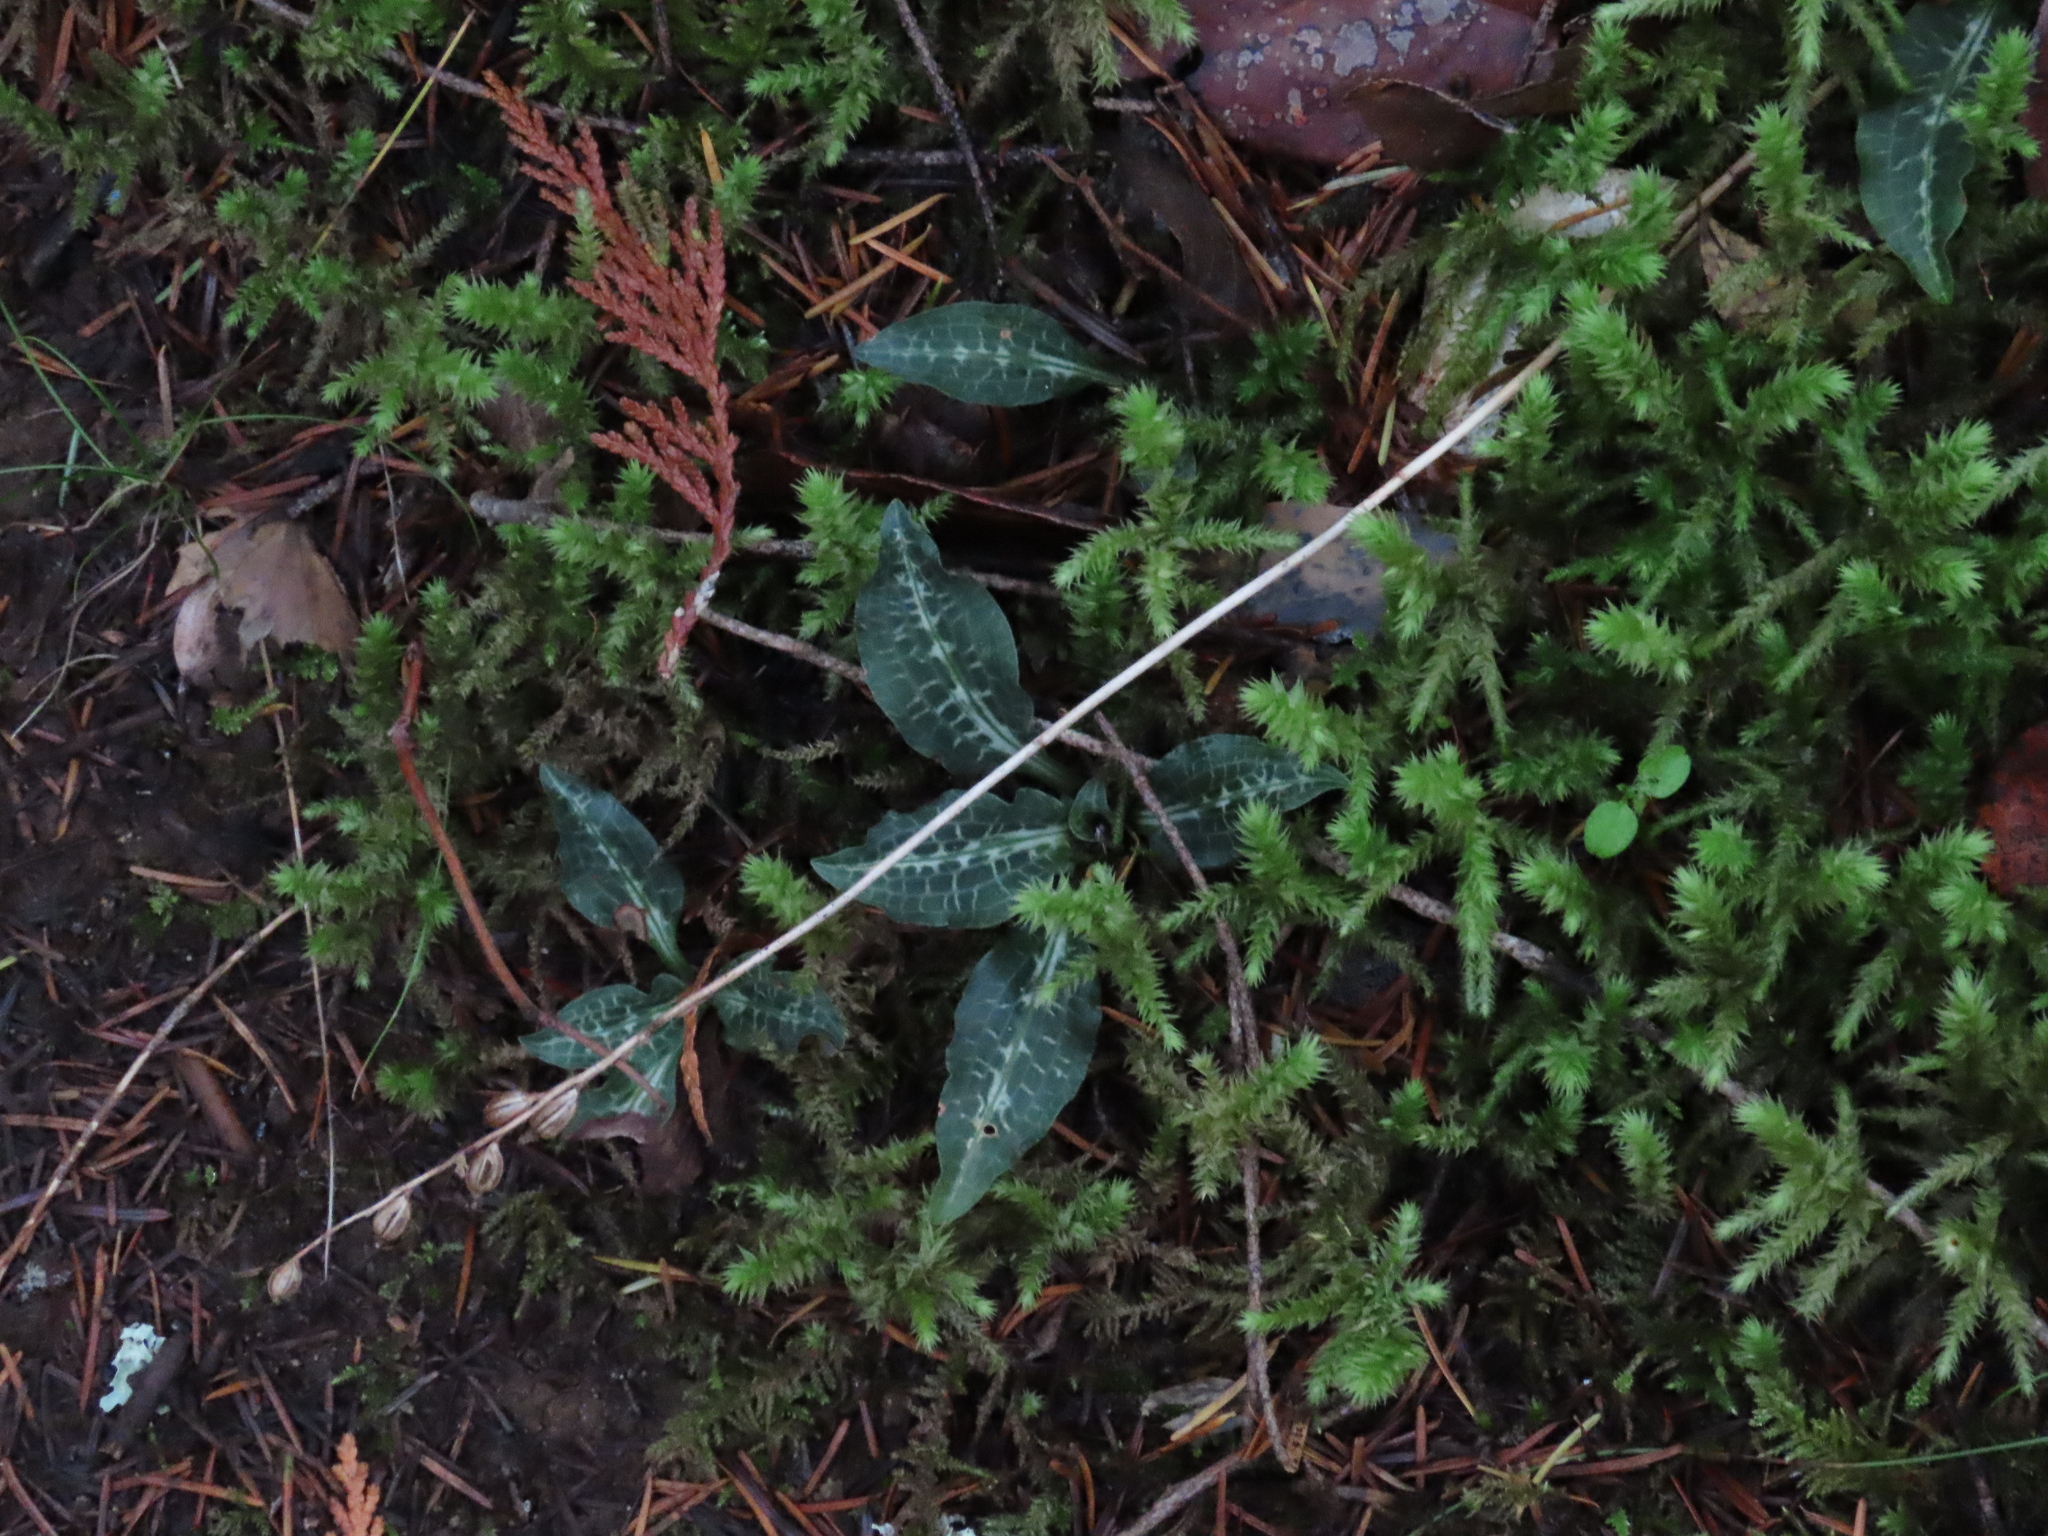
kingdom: Plantae
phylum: Tracheophyta
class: Liliopsida
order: Asparagales
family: Orchidaceae
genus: Goodyera
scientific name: Goodyera oblongifolia
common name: Giant rattlesnake-plantain
